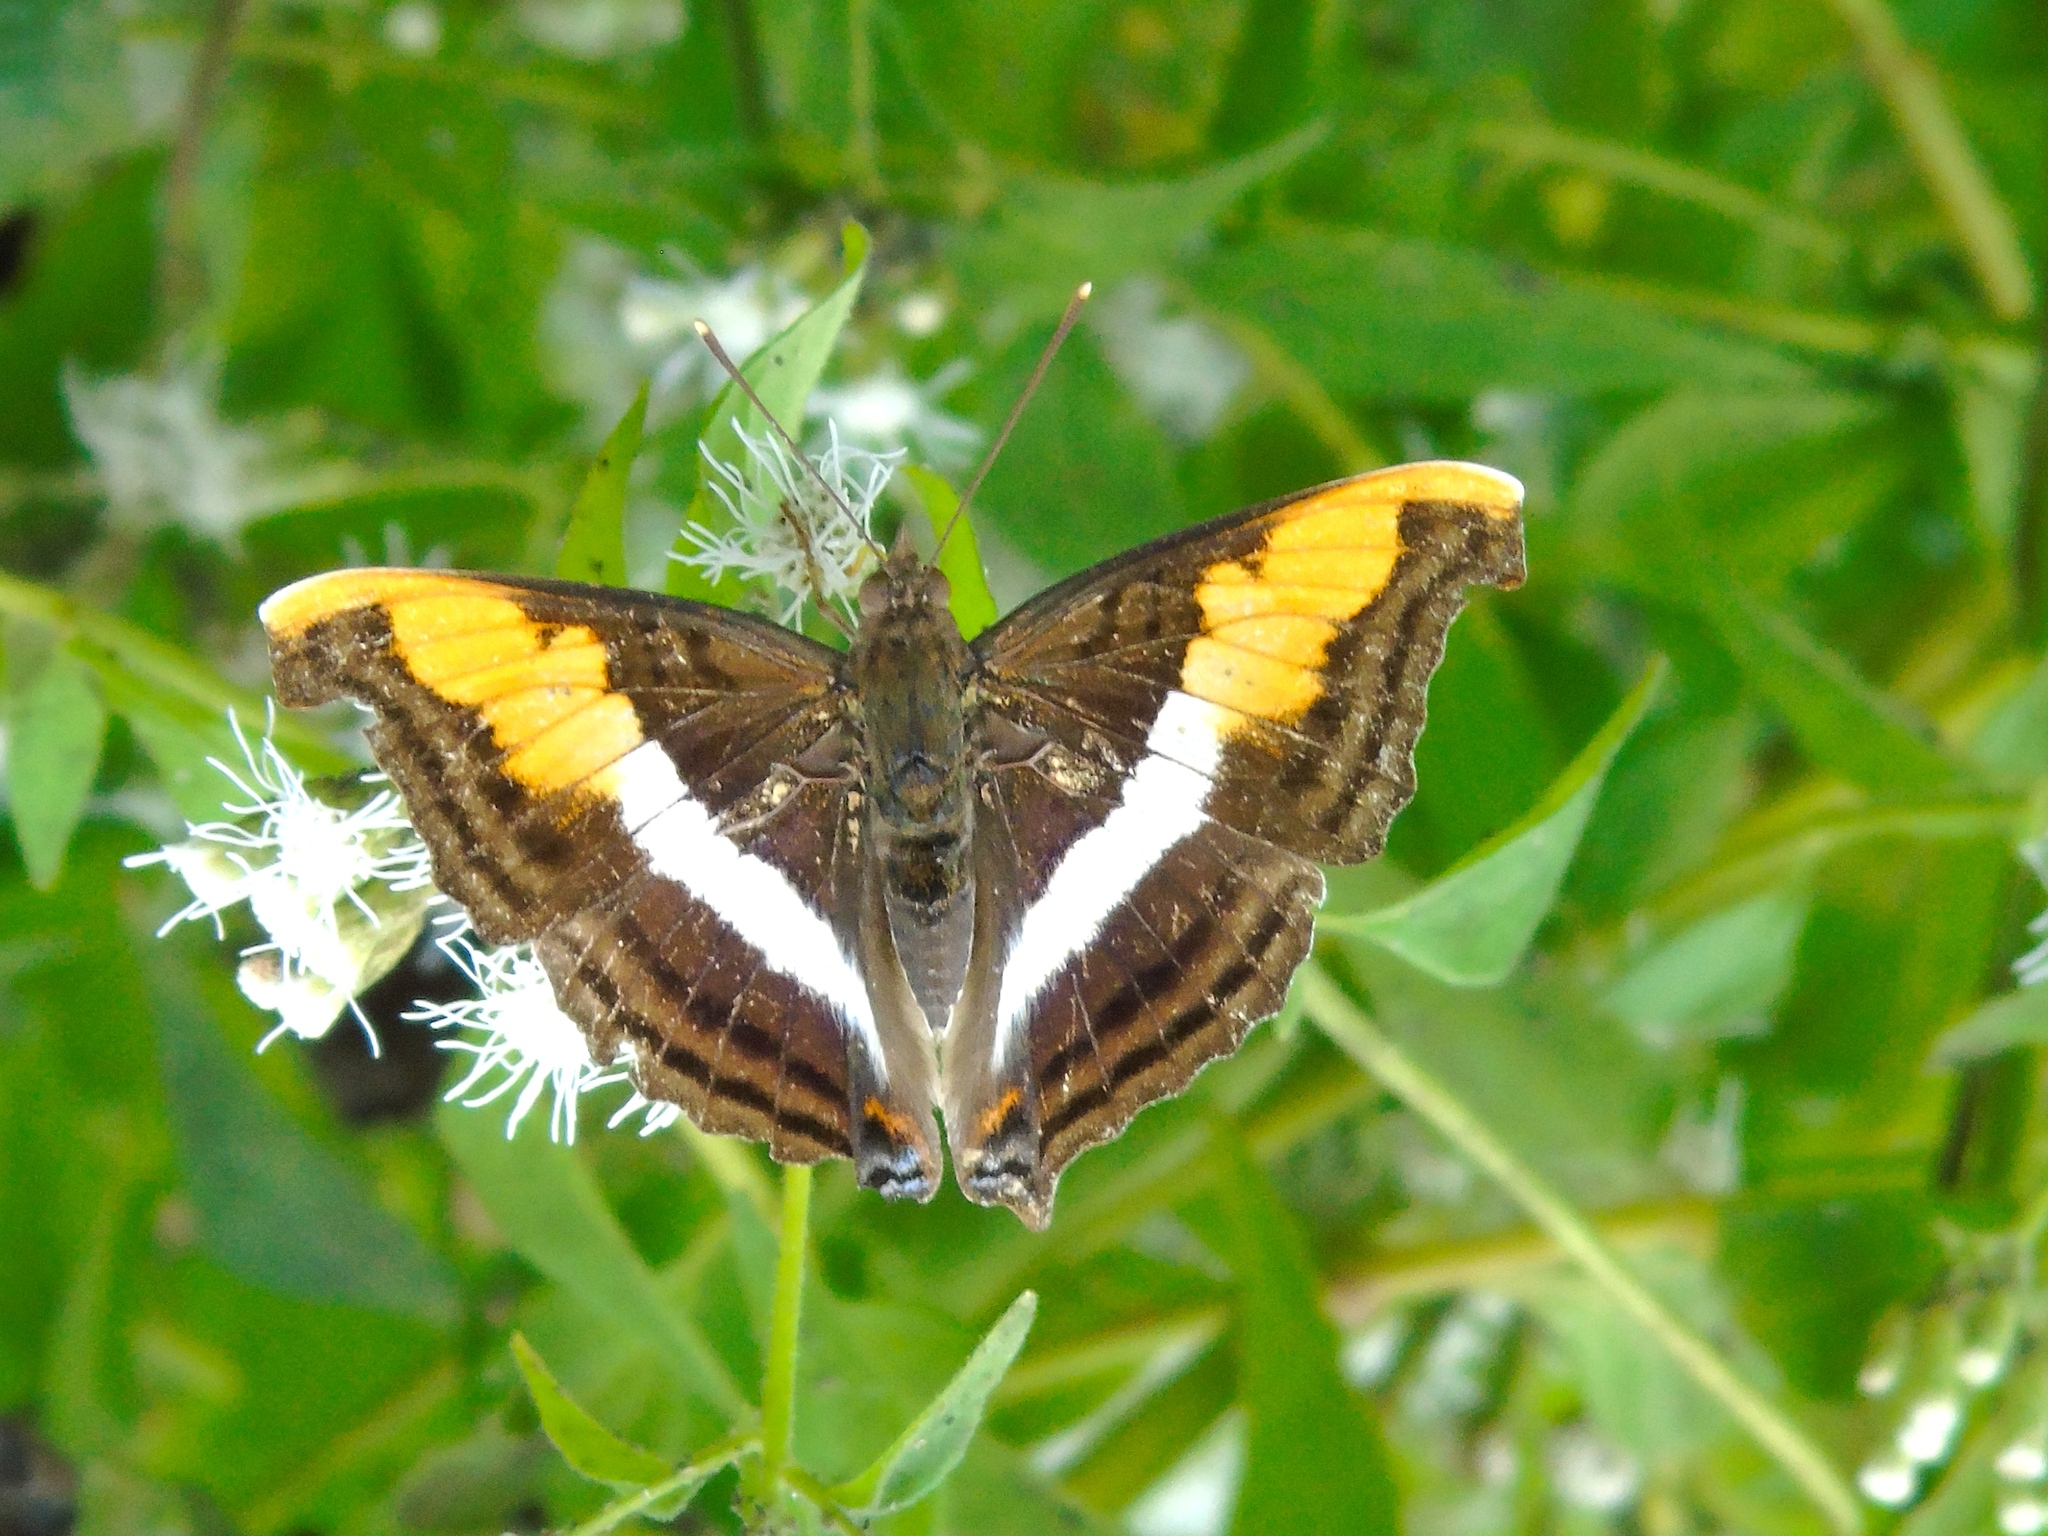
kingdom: Animalia
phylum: Arthropoda
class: Insecta
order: Lepidoptera
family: Nymphalidae
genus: Doxocopa
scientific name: Doxocopa laure
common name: Silver emperor
